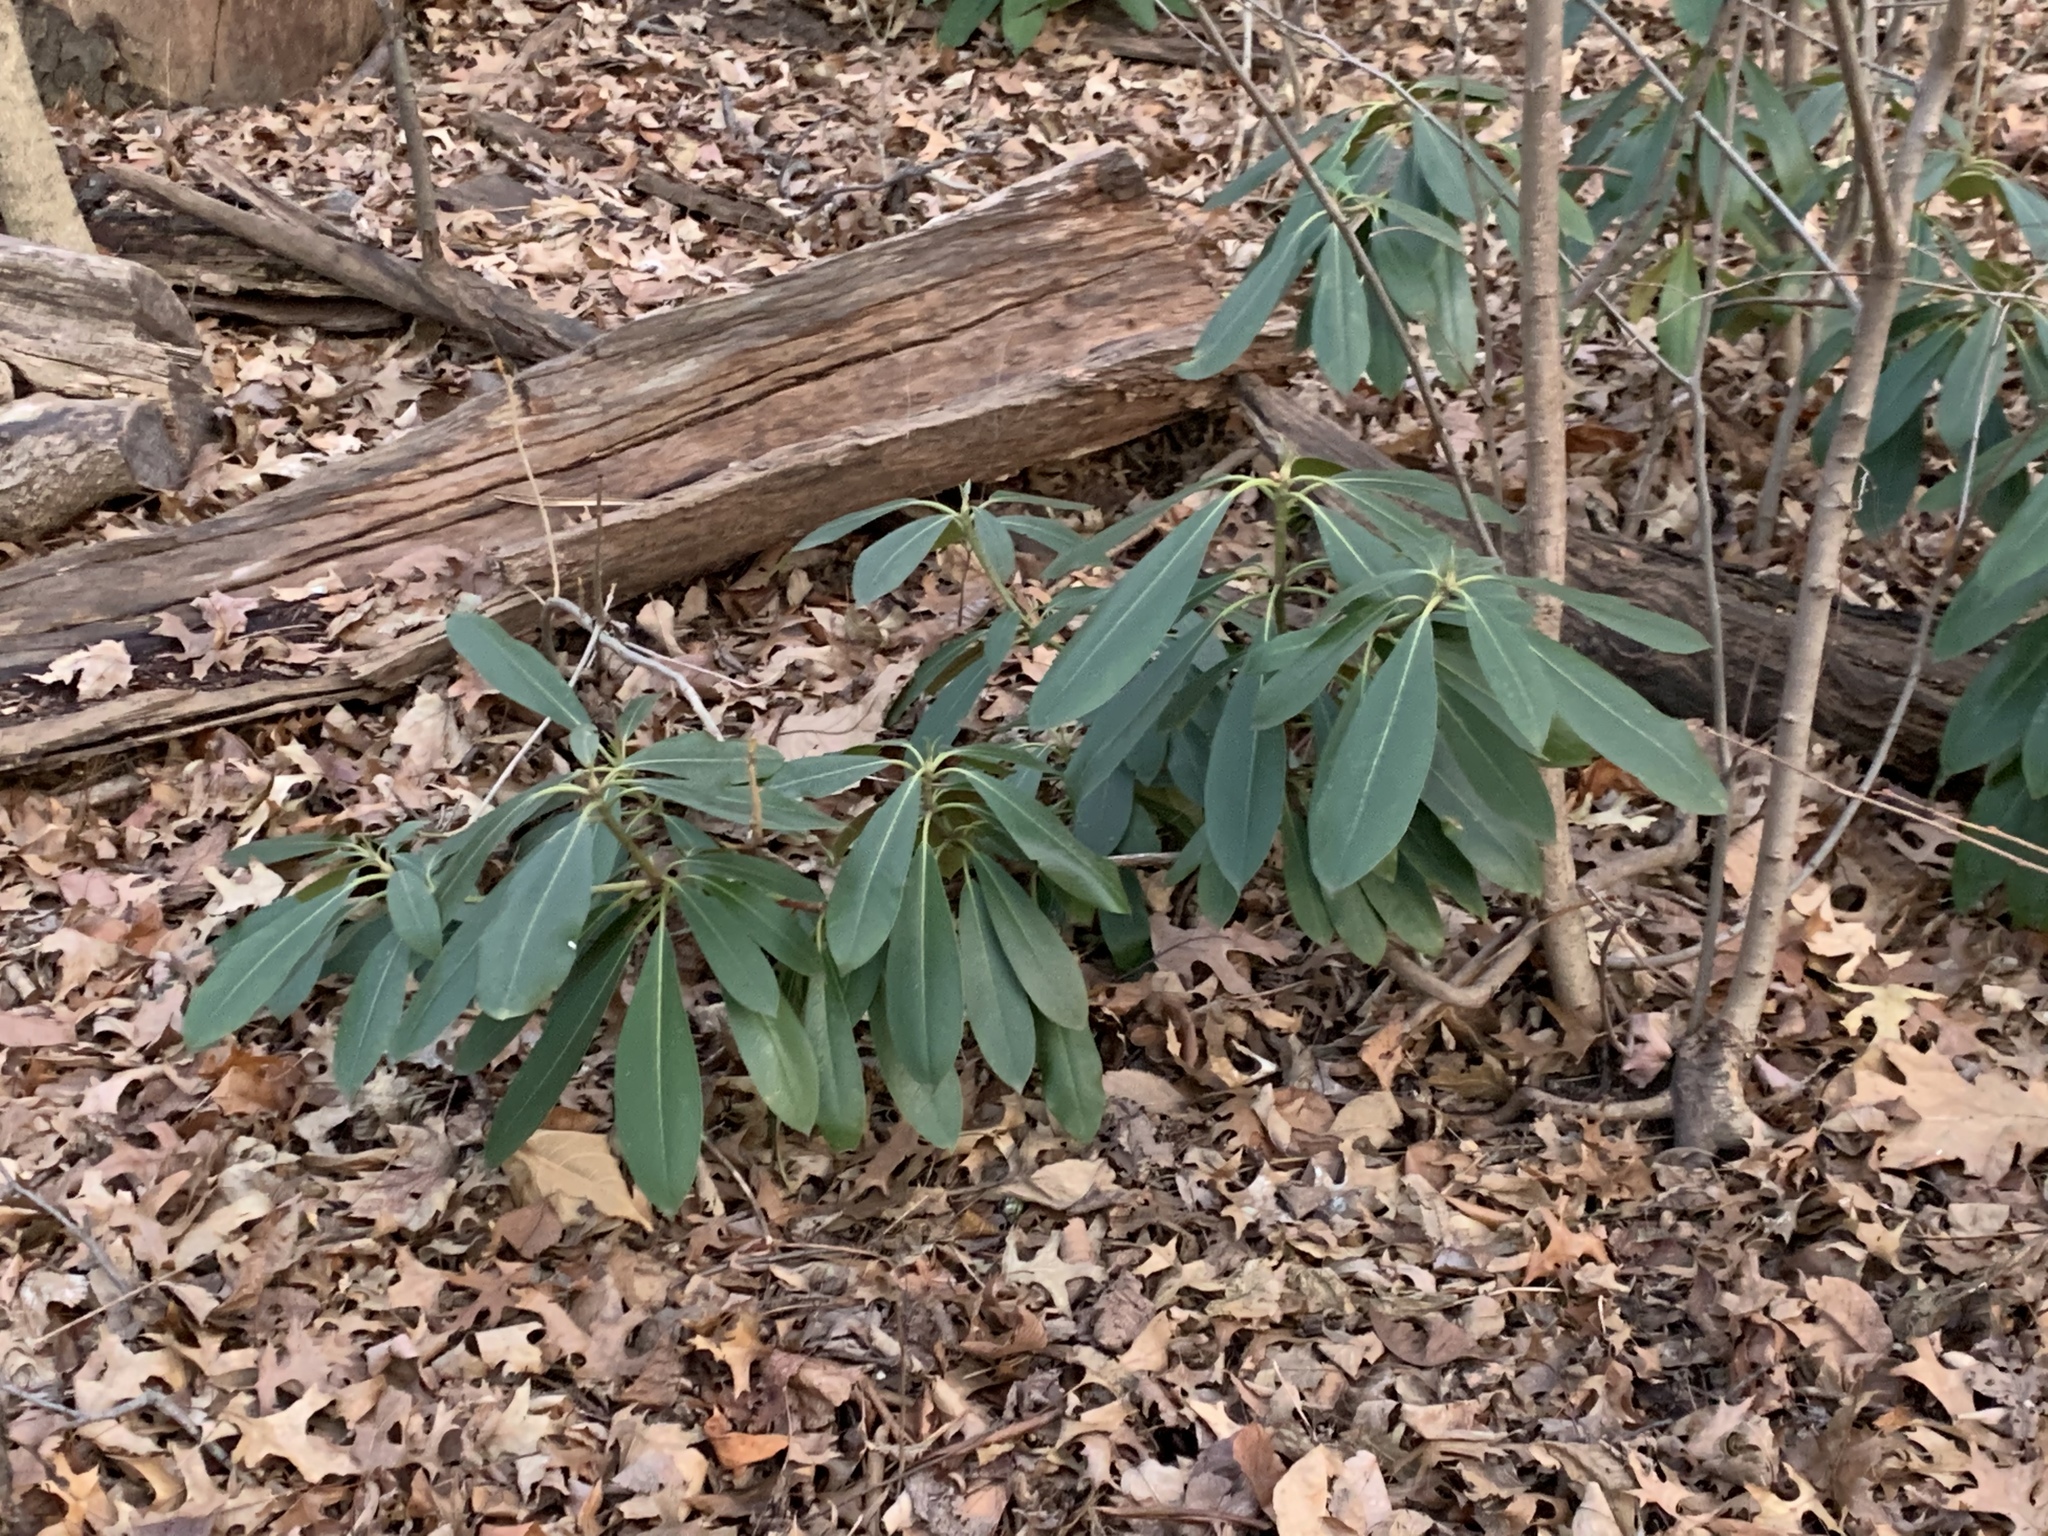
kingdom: Plantae
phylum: Tracheophyta
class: Magnoliopsida
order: Ericales
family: Ericaceae
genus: Rhododendron
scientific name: Rhododendron maximum
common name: Great rhododendron
